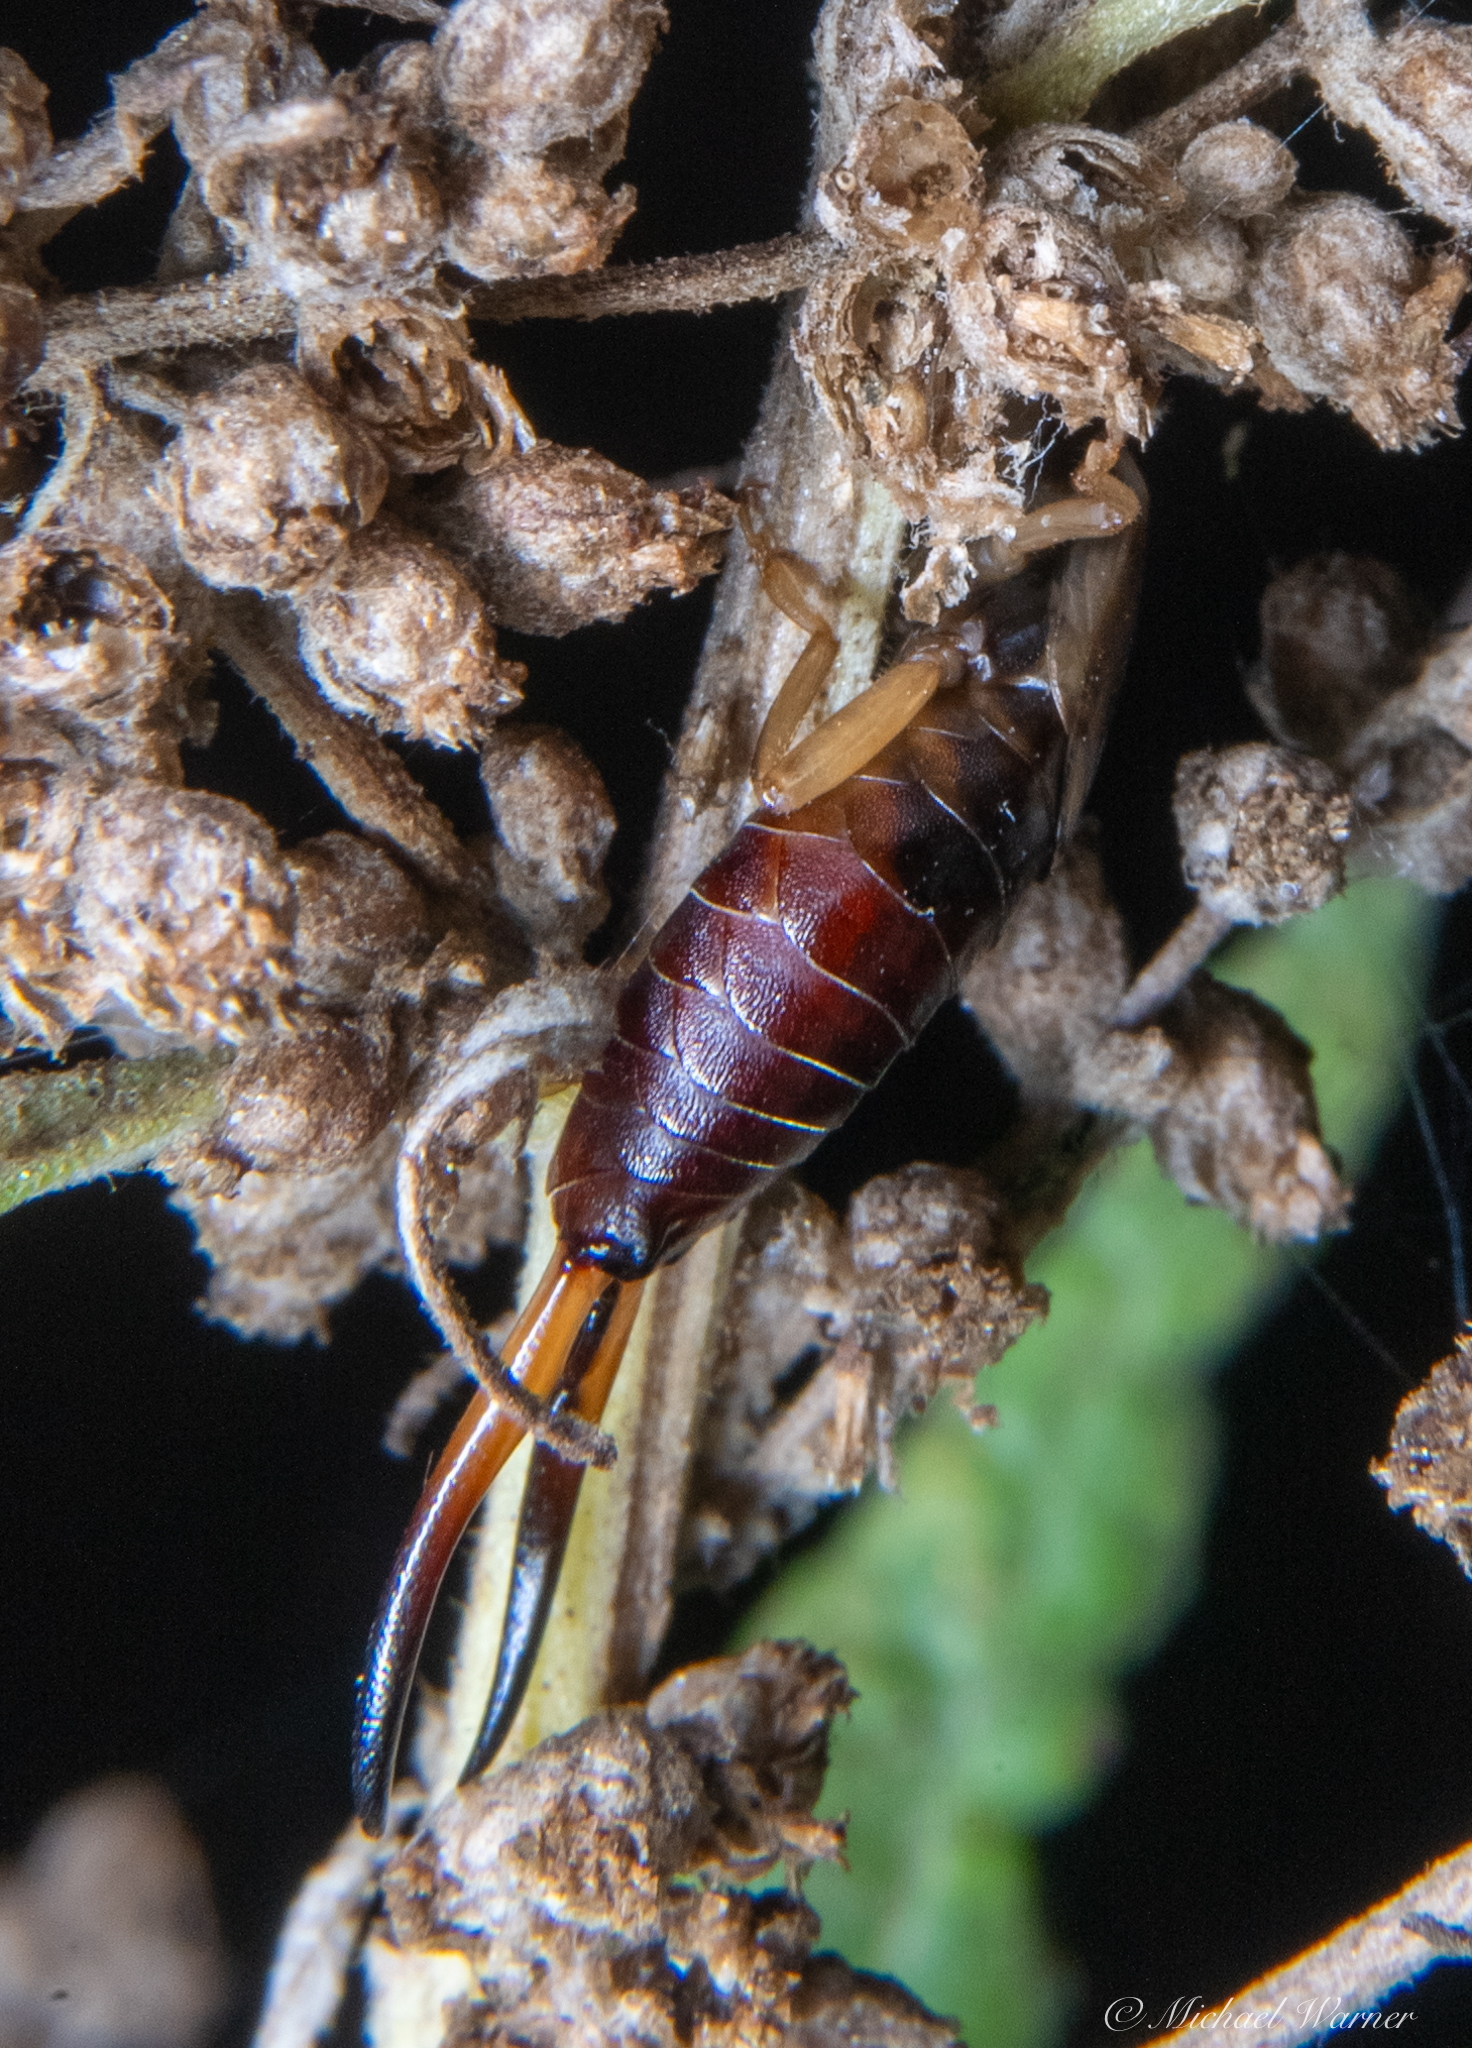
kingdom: Animalia
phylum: Arthropoda
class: Insecta
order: Dermaptera
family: Forficulidae
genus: Forficula
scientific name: Forficula dentata
